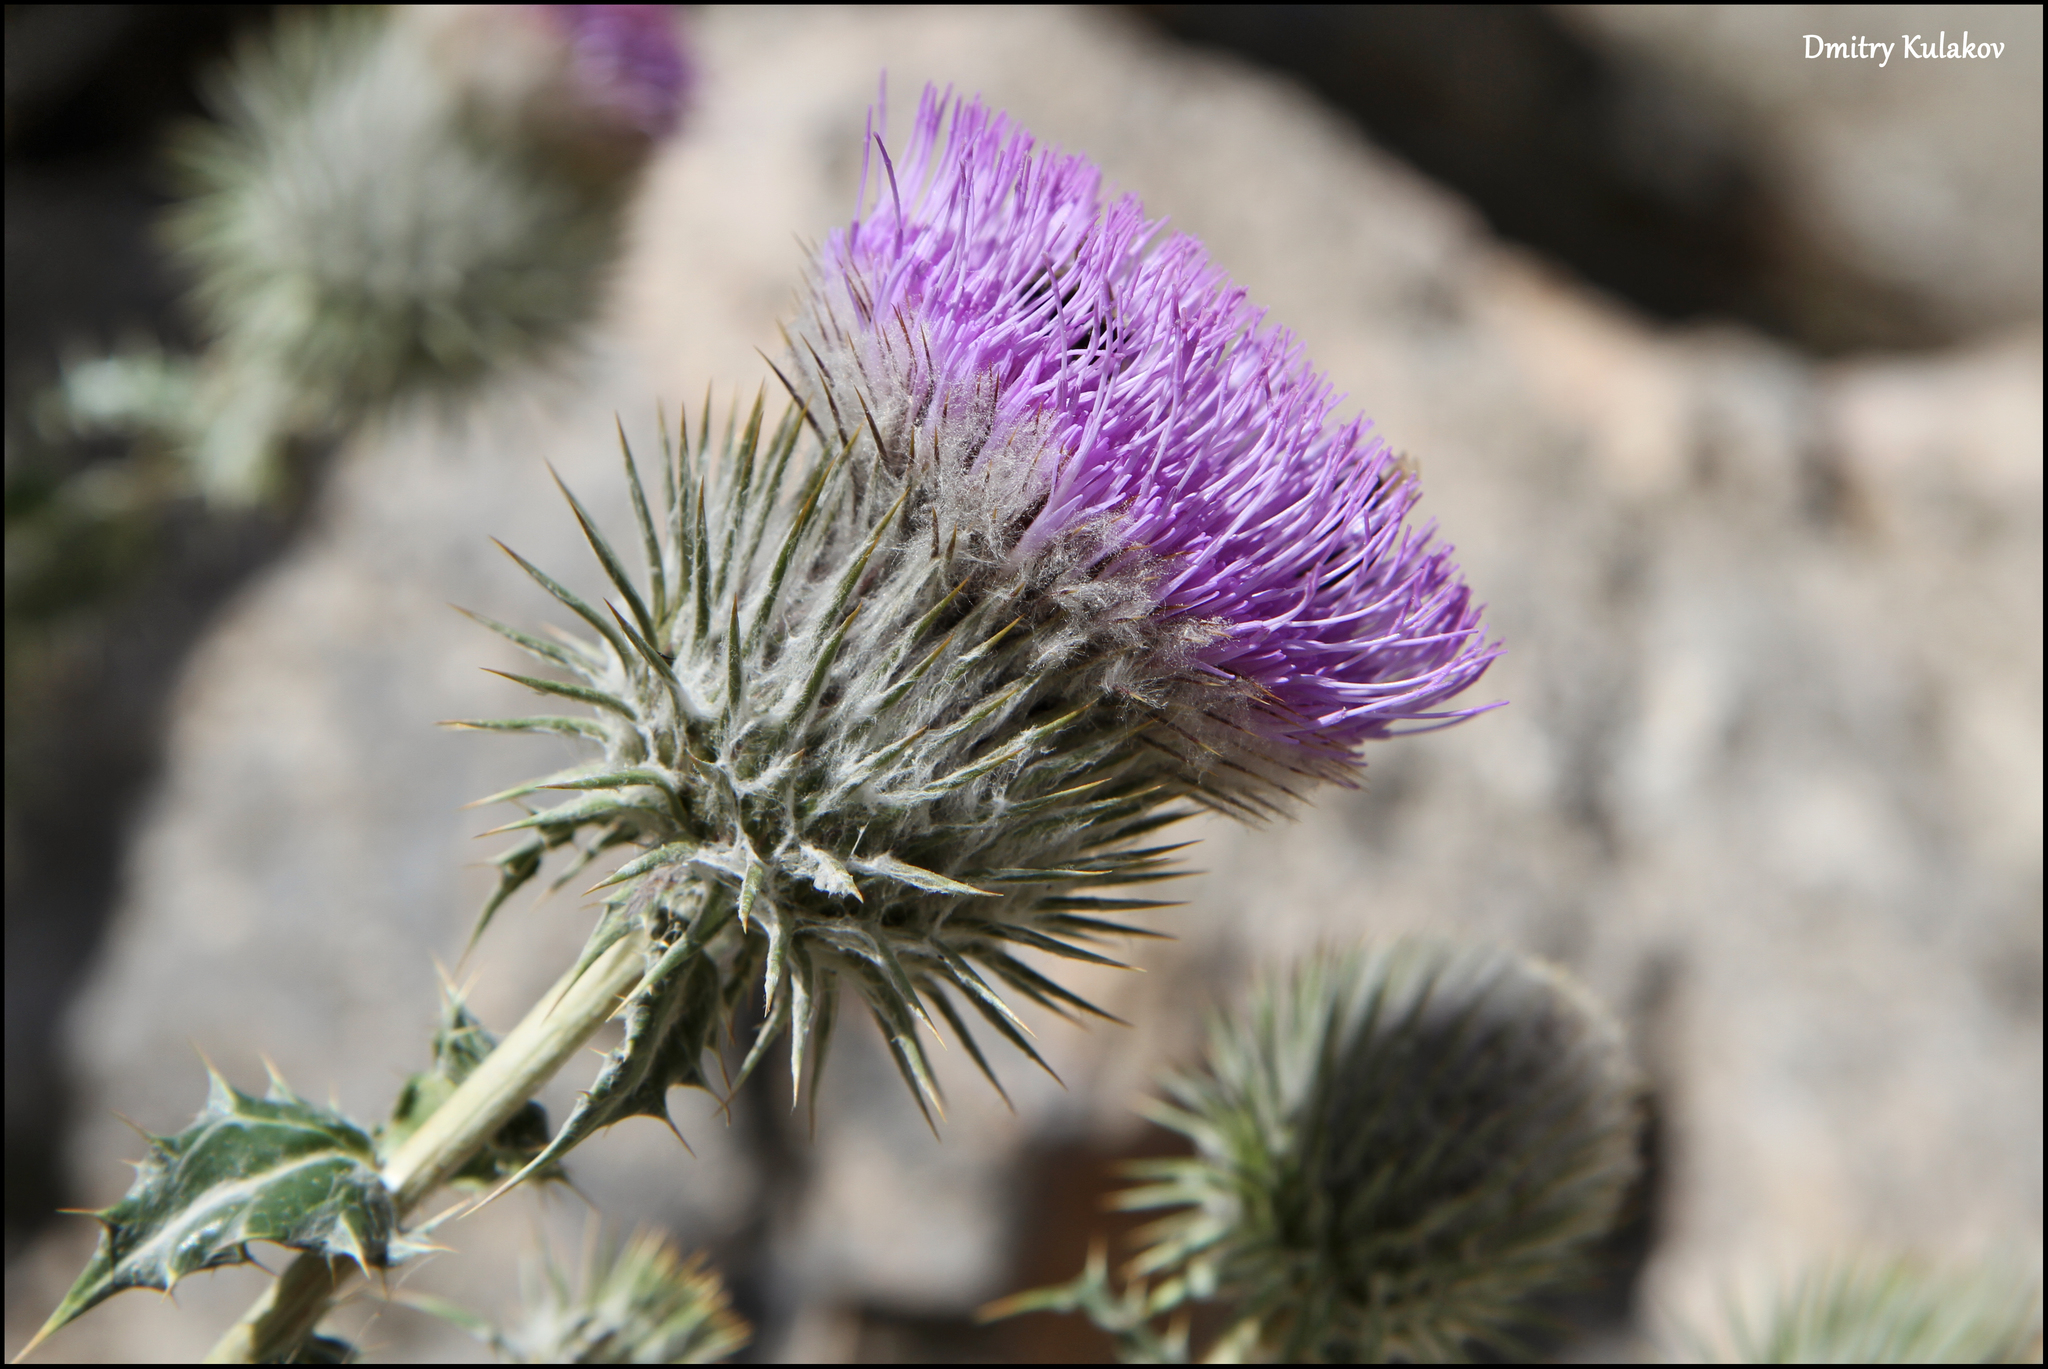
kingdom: Plantae
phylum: Tracheophyta
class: Magnoliopsida
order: Asterales
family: Asteraceae
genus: Olgaea
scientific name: Olgaea eriocephala
